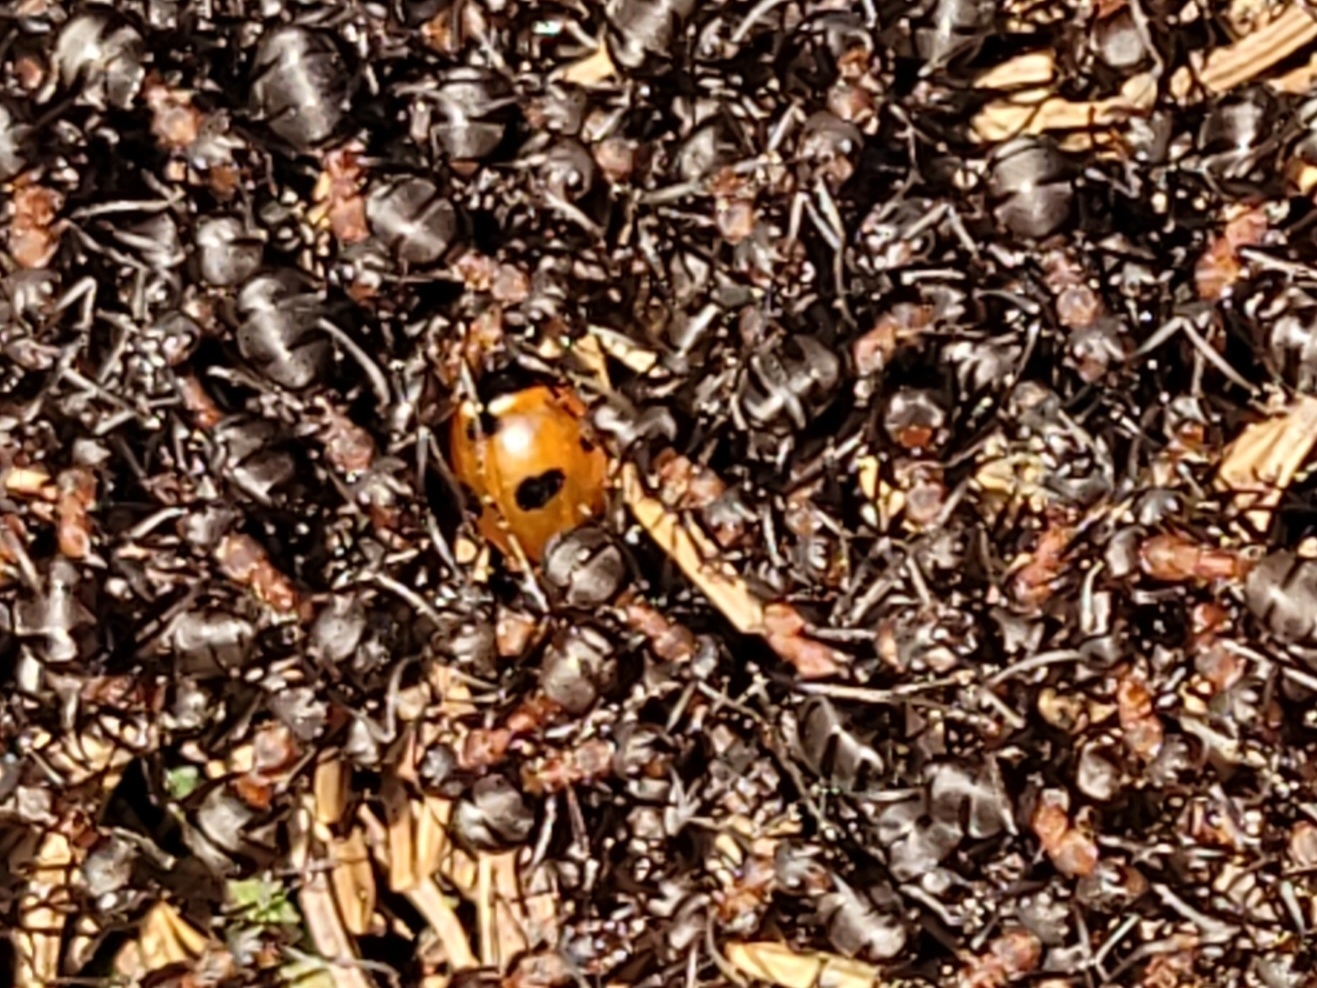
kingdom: Animalia
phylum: Arthropoda
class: Insecta
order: Coleoptera
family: Coccinellidae
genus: Coccinella
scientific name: Coccinella magnifica
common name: Scarce 7-spot ladybird
